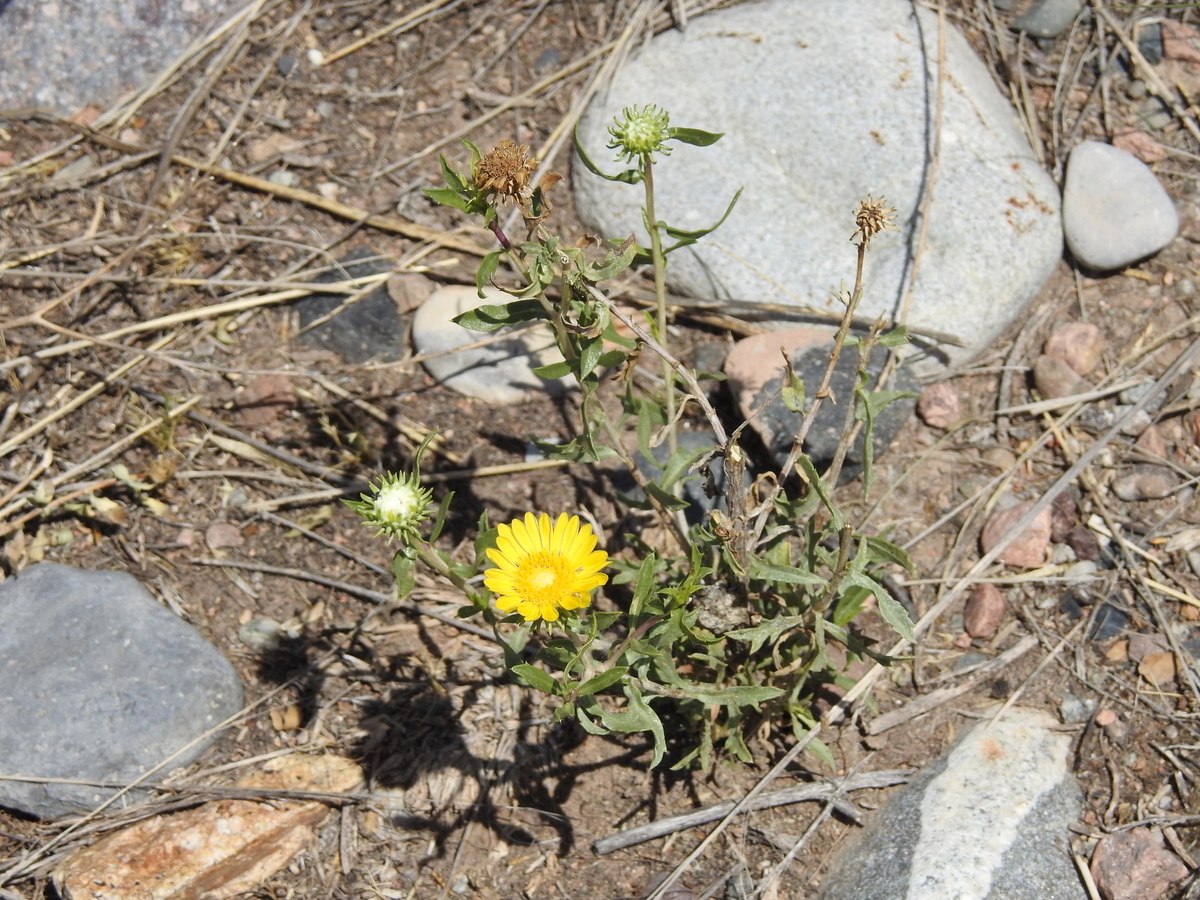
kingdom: Plantae
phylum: Tracheophyta
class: Magnoliopsida
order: Asterales
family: Asteraceae
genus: Grindelia
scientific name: Grindelia pulchella
